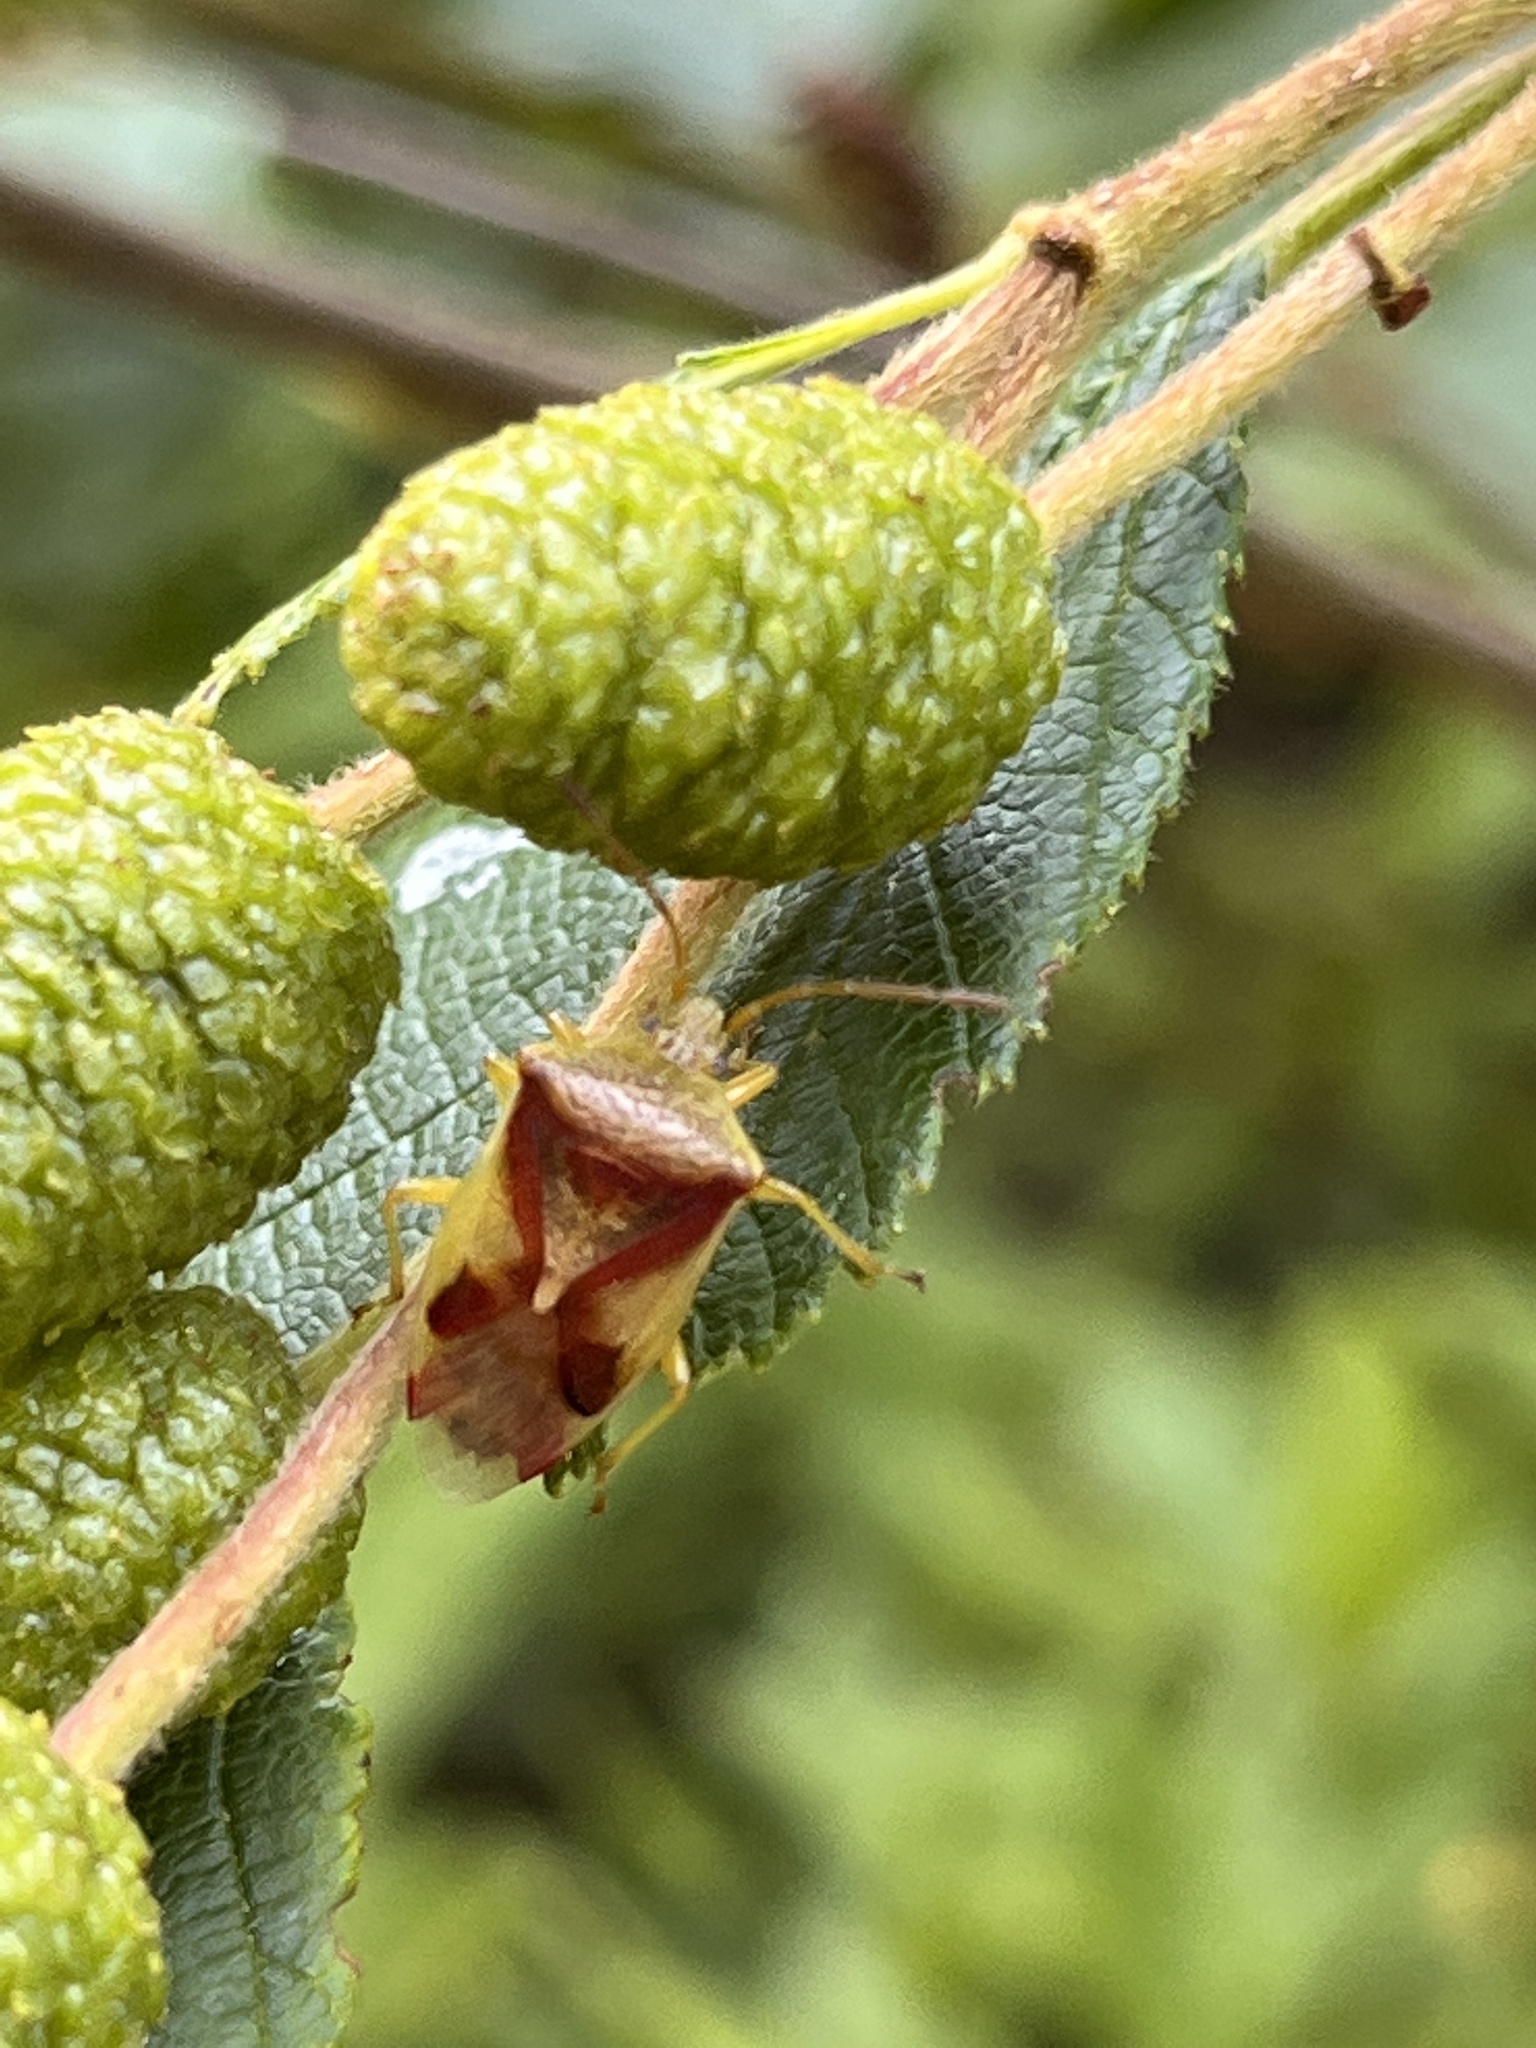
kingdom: Animalia
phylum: Arthropoda
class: Insecta
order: Hemiptera
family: Acanthosomatidae
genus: Elasmostethus
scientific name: Elasmostethus cruciatus
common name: Red-cross shield bug
